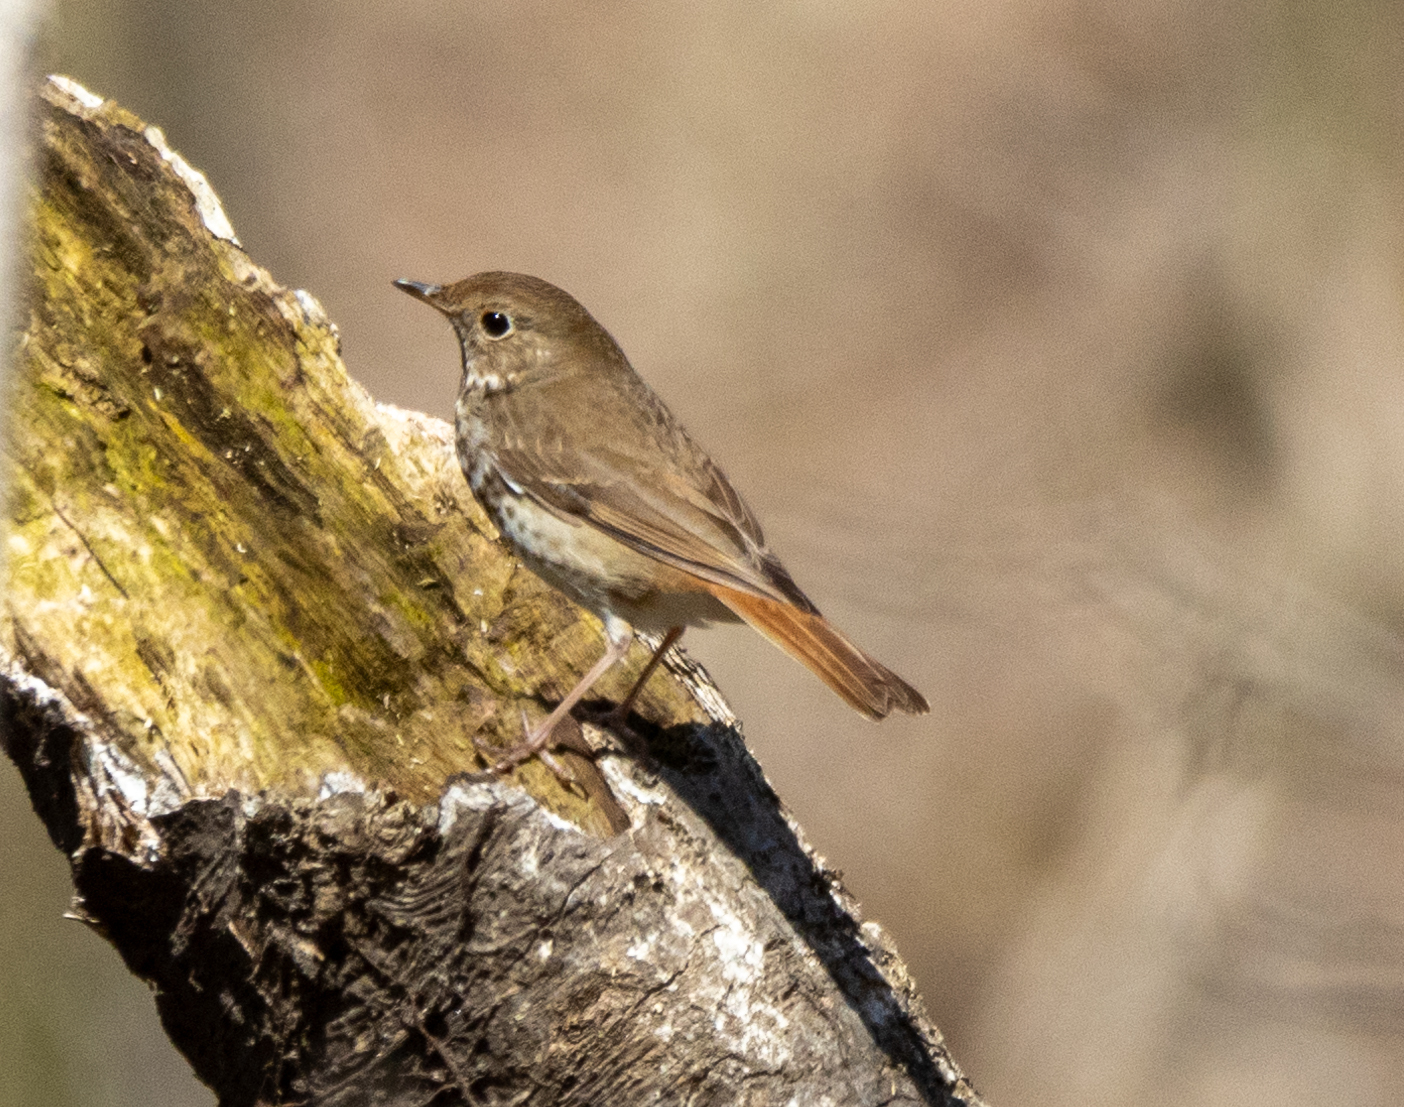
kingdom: Animalia
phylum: Chordata
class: Aves
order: Passeriformes
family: Turdidae
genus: Catharus
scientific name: Catharus guttatus
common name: Hermit thrush
